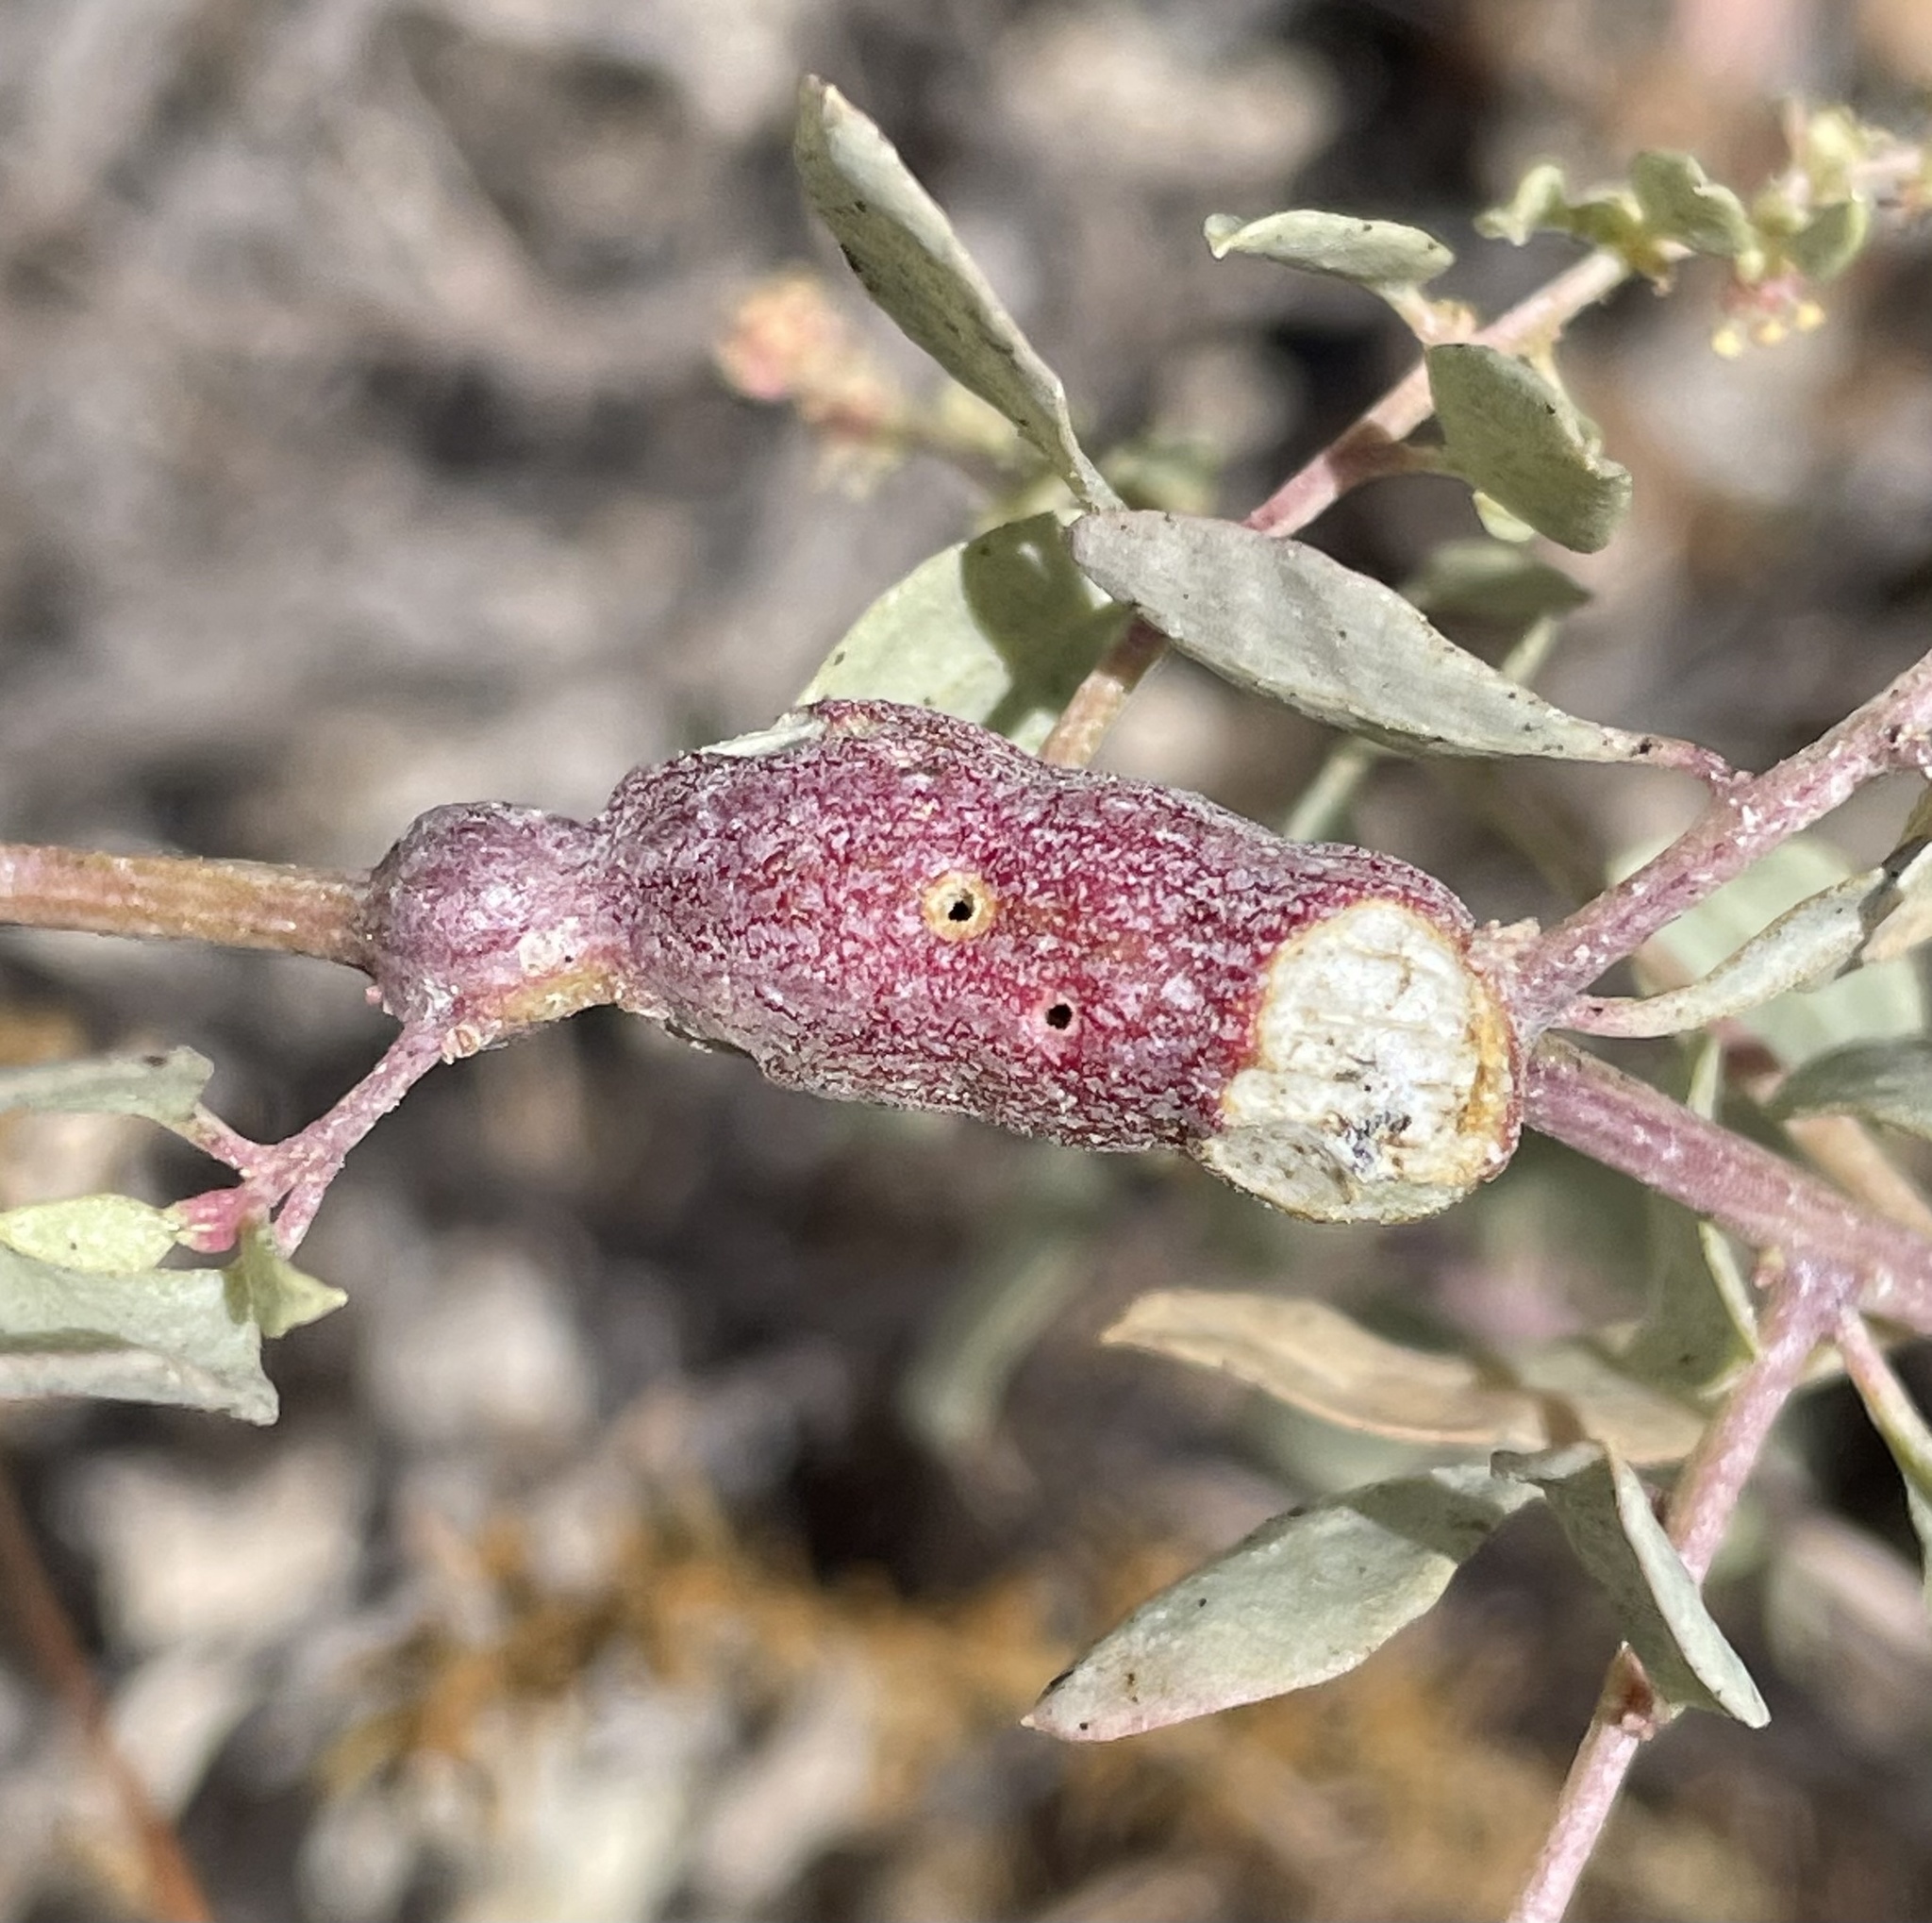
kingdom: Animalia
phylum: Arthropoda
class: Insecta
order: Diptera
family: Cecidomyiidae
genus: Asphondylia
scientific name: Asphondylia atriplicis
